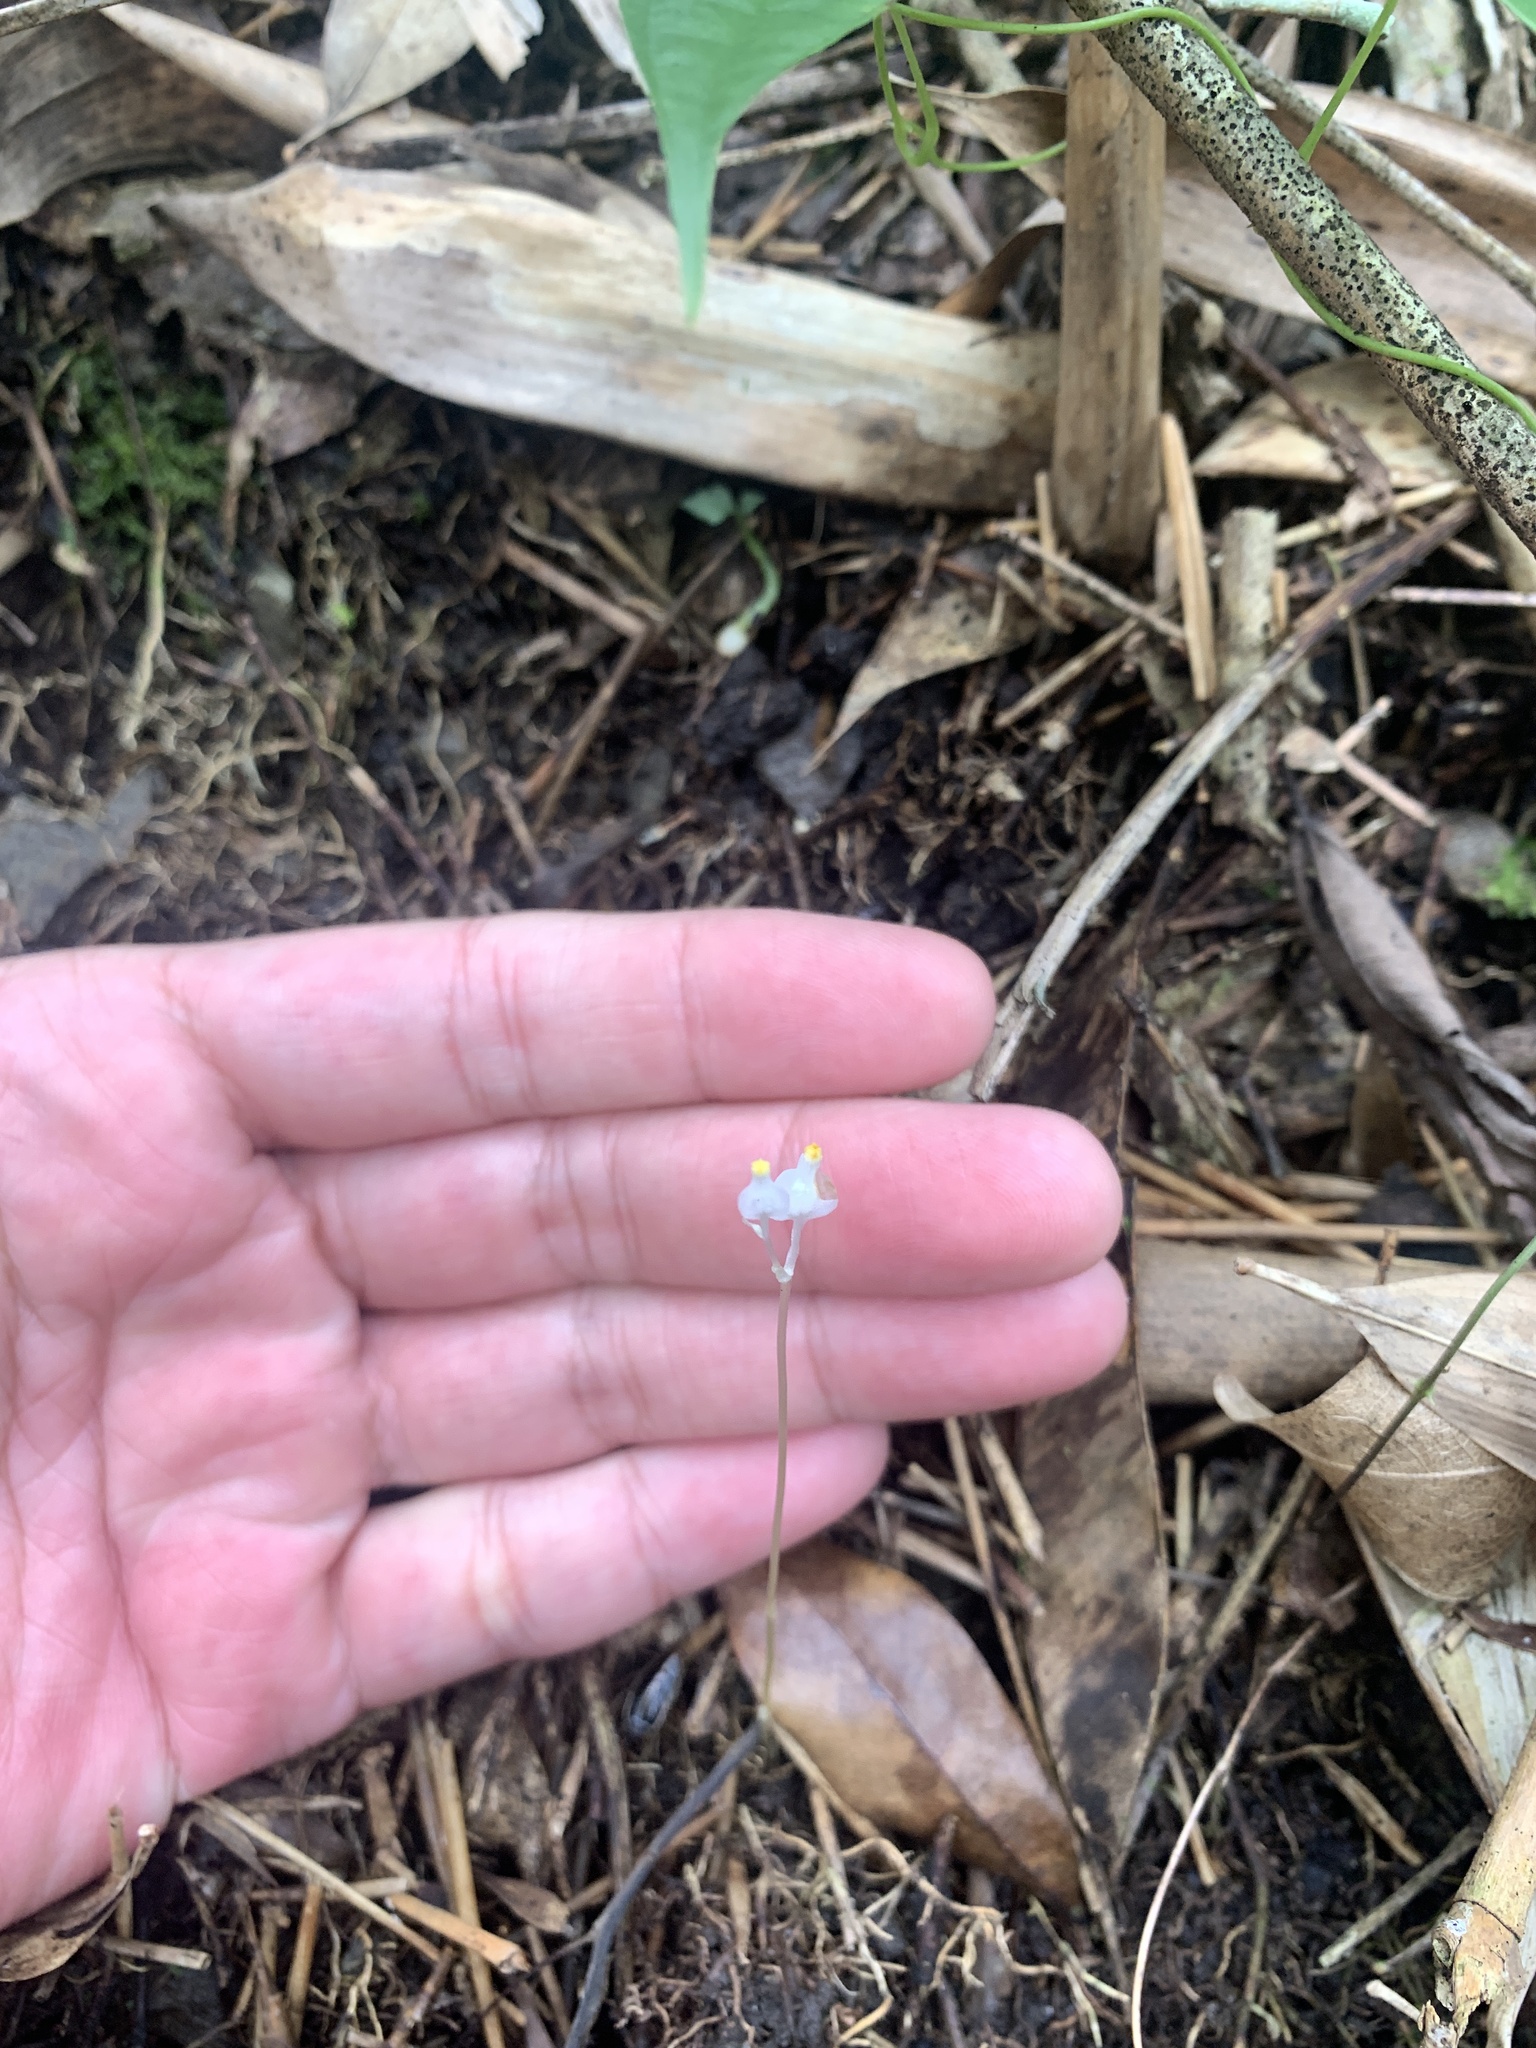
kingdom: Plantae
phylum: Tracheophyta
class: Liliopsida
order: Dioscoreales
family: Burmanniaceae
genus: Burmannia
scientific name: Burmannia nepalensis
